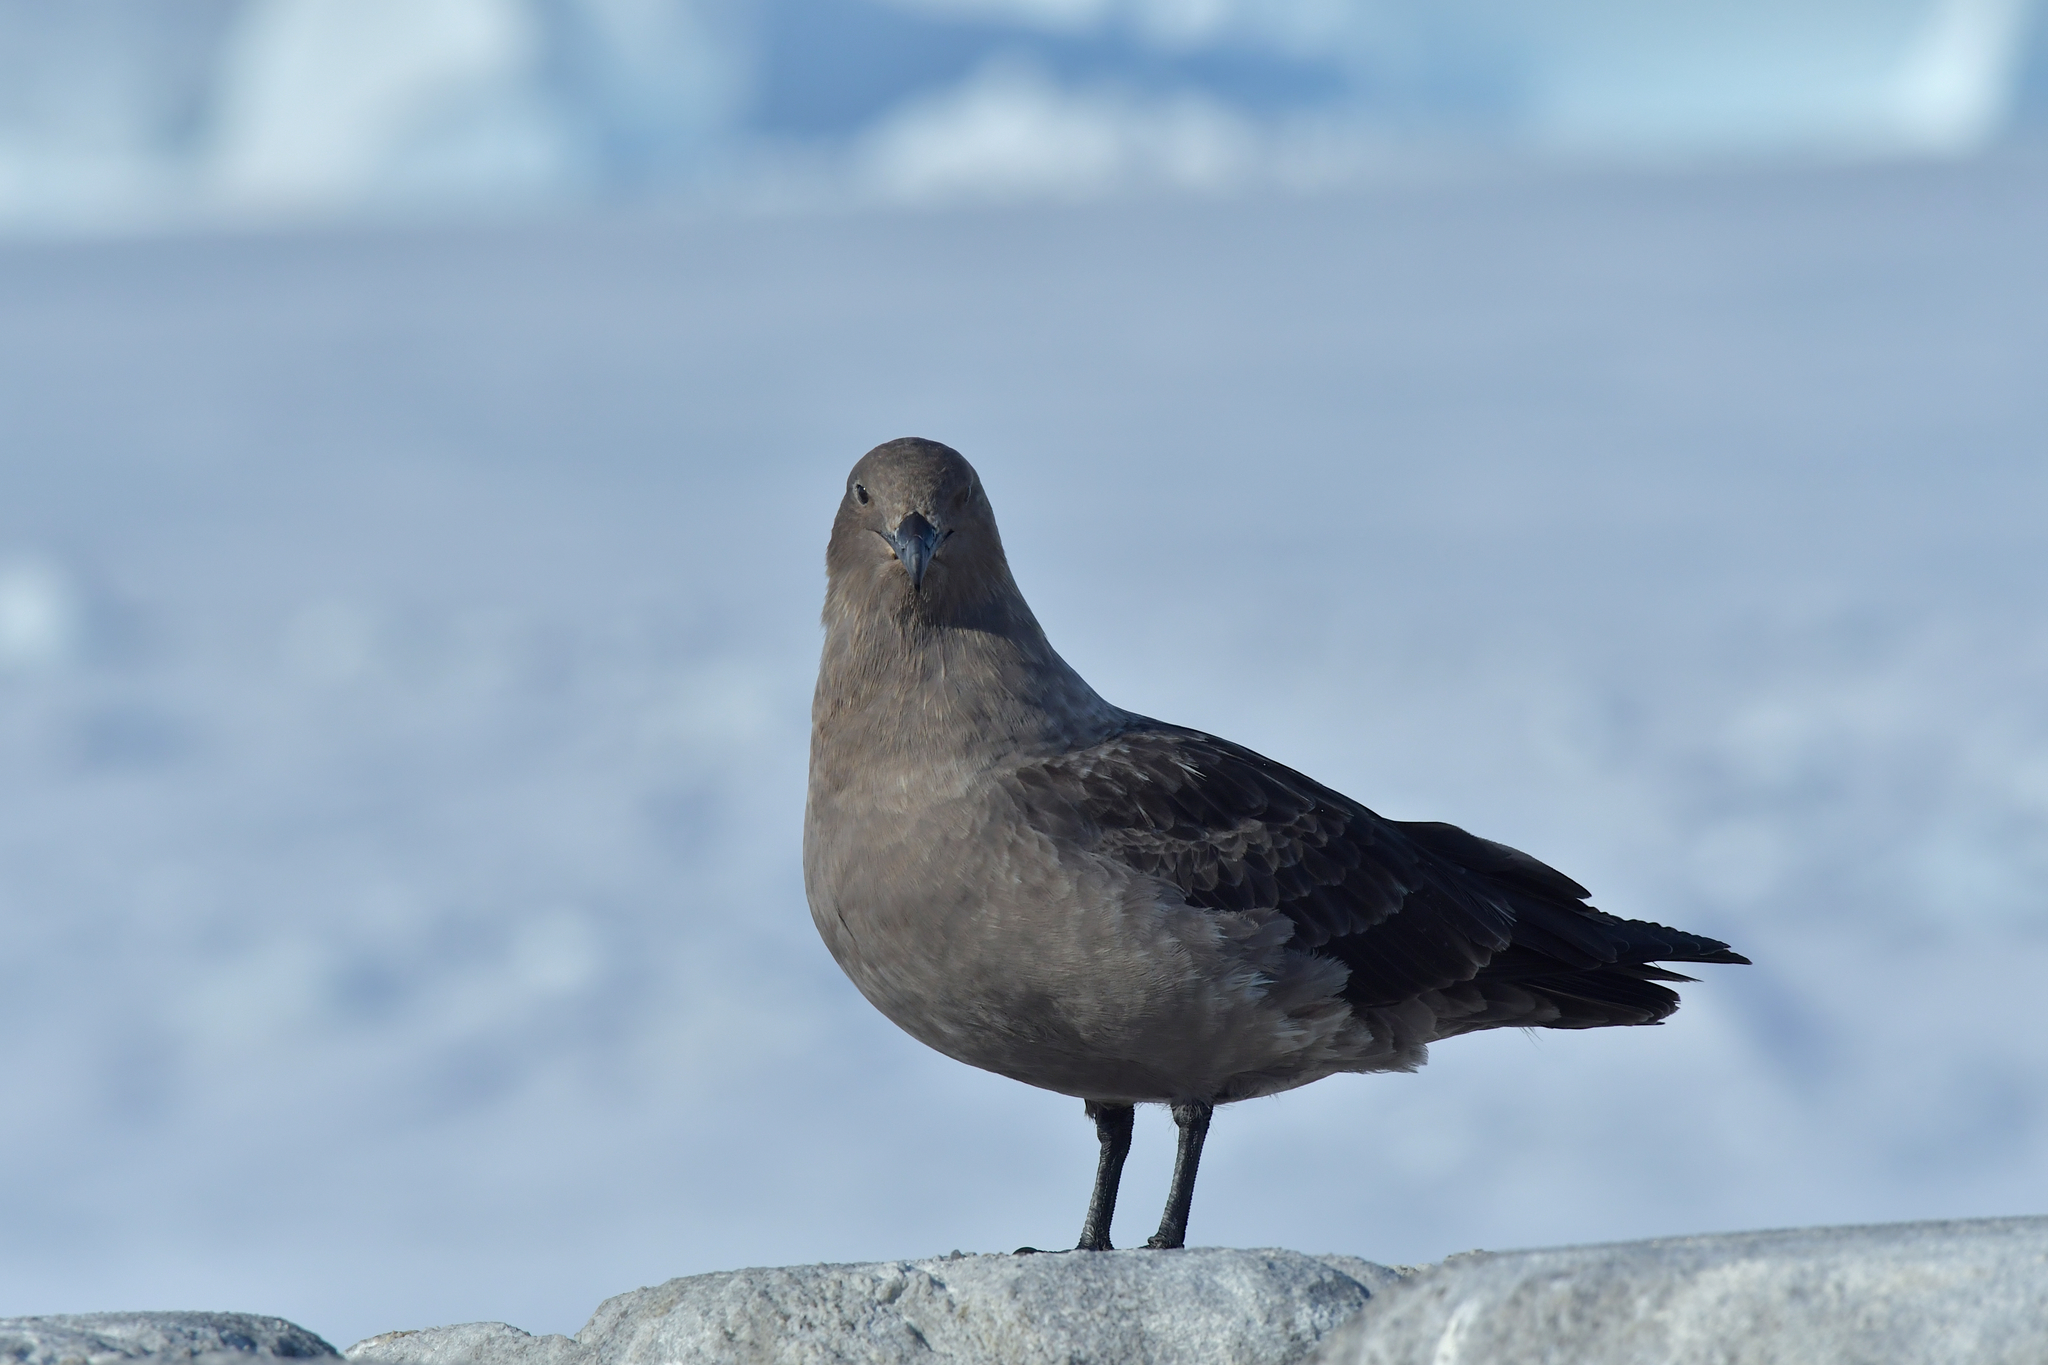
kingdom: Animalia
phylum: Chordata
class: Aves
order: Charadriiformes
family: Stercorariidae
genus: Stercorarius
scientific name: Stercorarius maccormicki
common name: South polar skua
